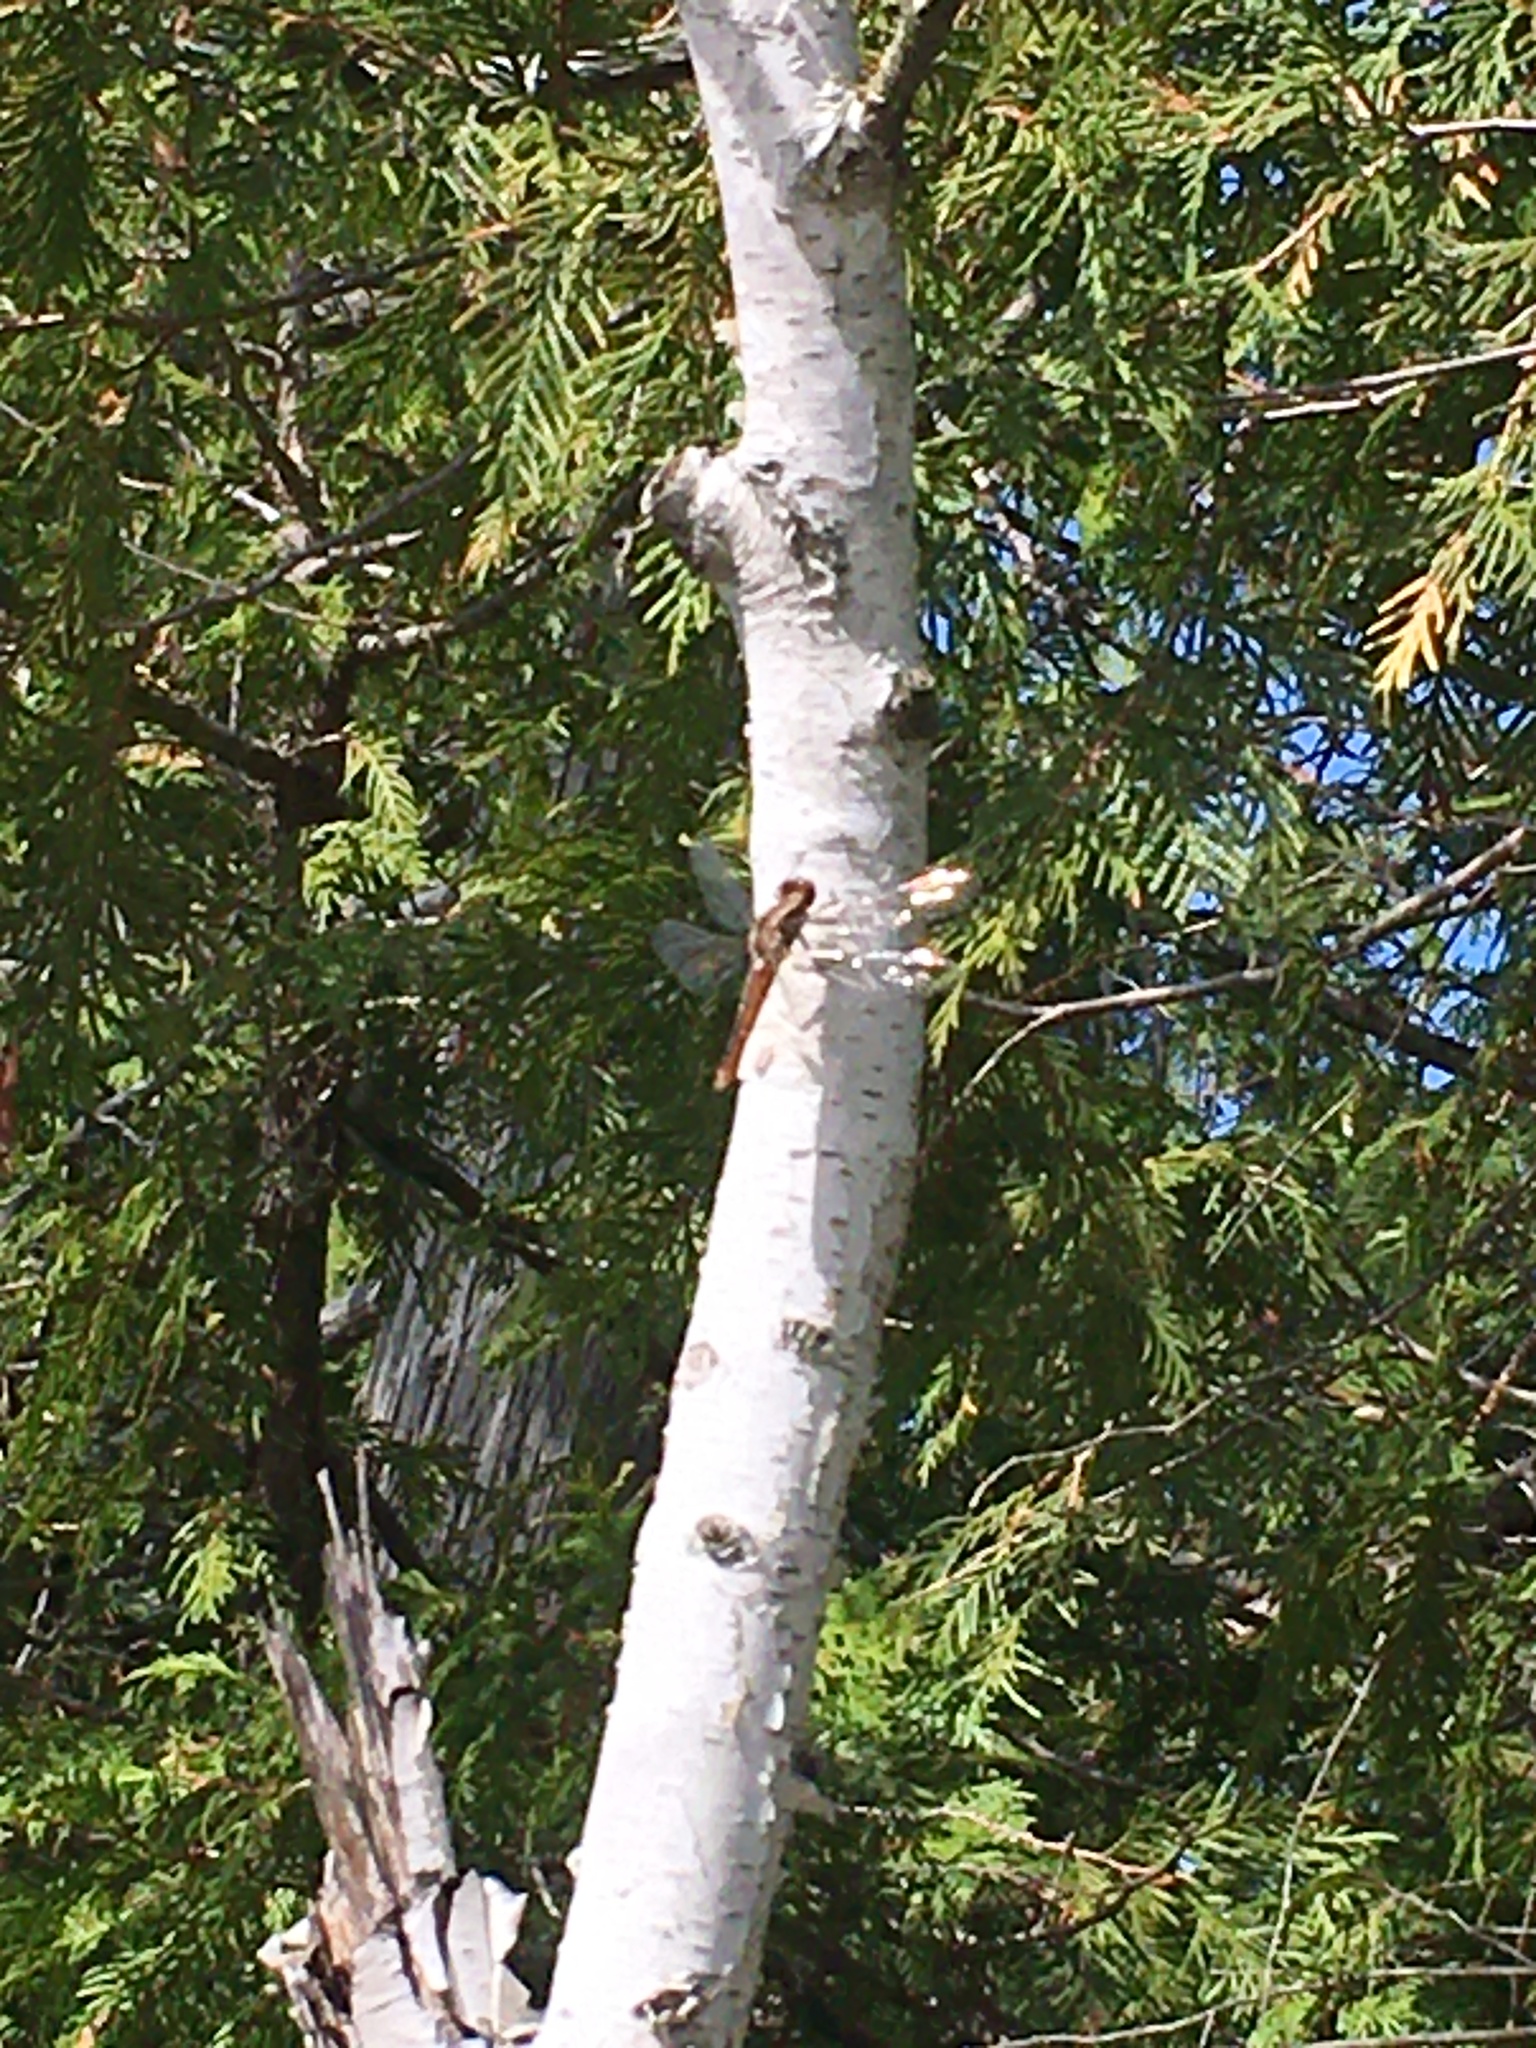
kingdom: Animalia
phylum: Arthropoda
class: Insecta
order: Odonata
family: Libellulidae
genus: Ladona
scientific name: Ladona julia
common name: Chalk-fronted corporal
